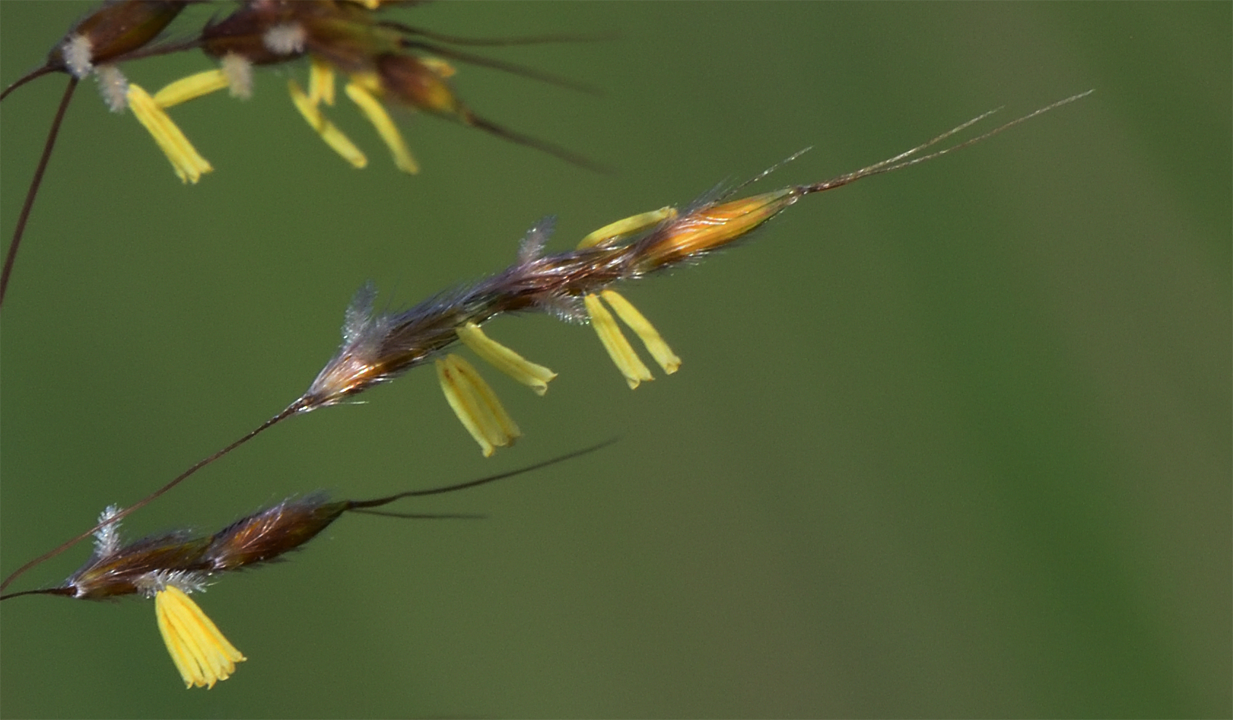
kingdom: Plantae
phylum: Tracheophyta
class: Liliopsida
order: Poales
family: Poaceae
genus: Sorghastrum
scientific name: Sorghastrum nutans
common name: Indian grass
